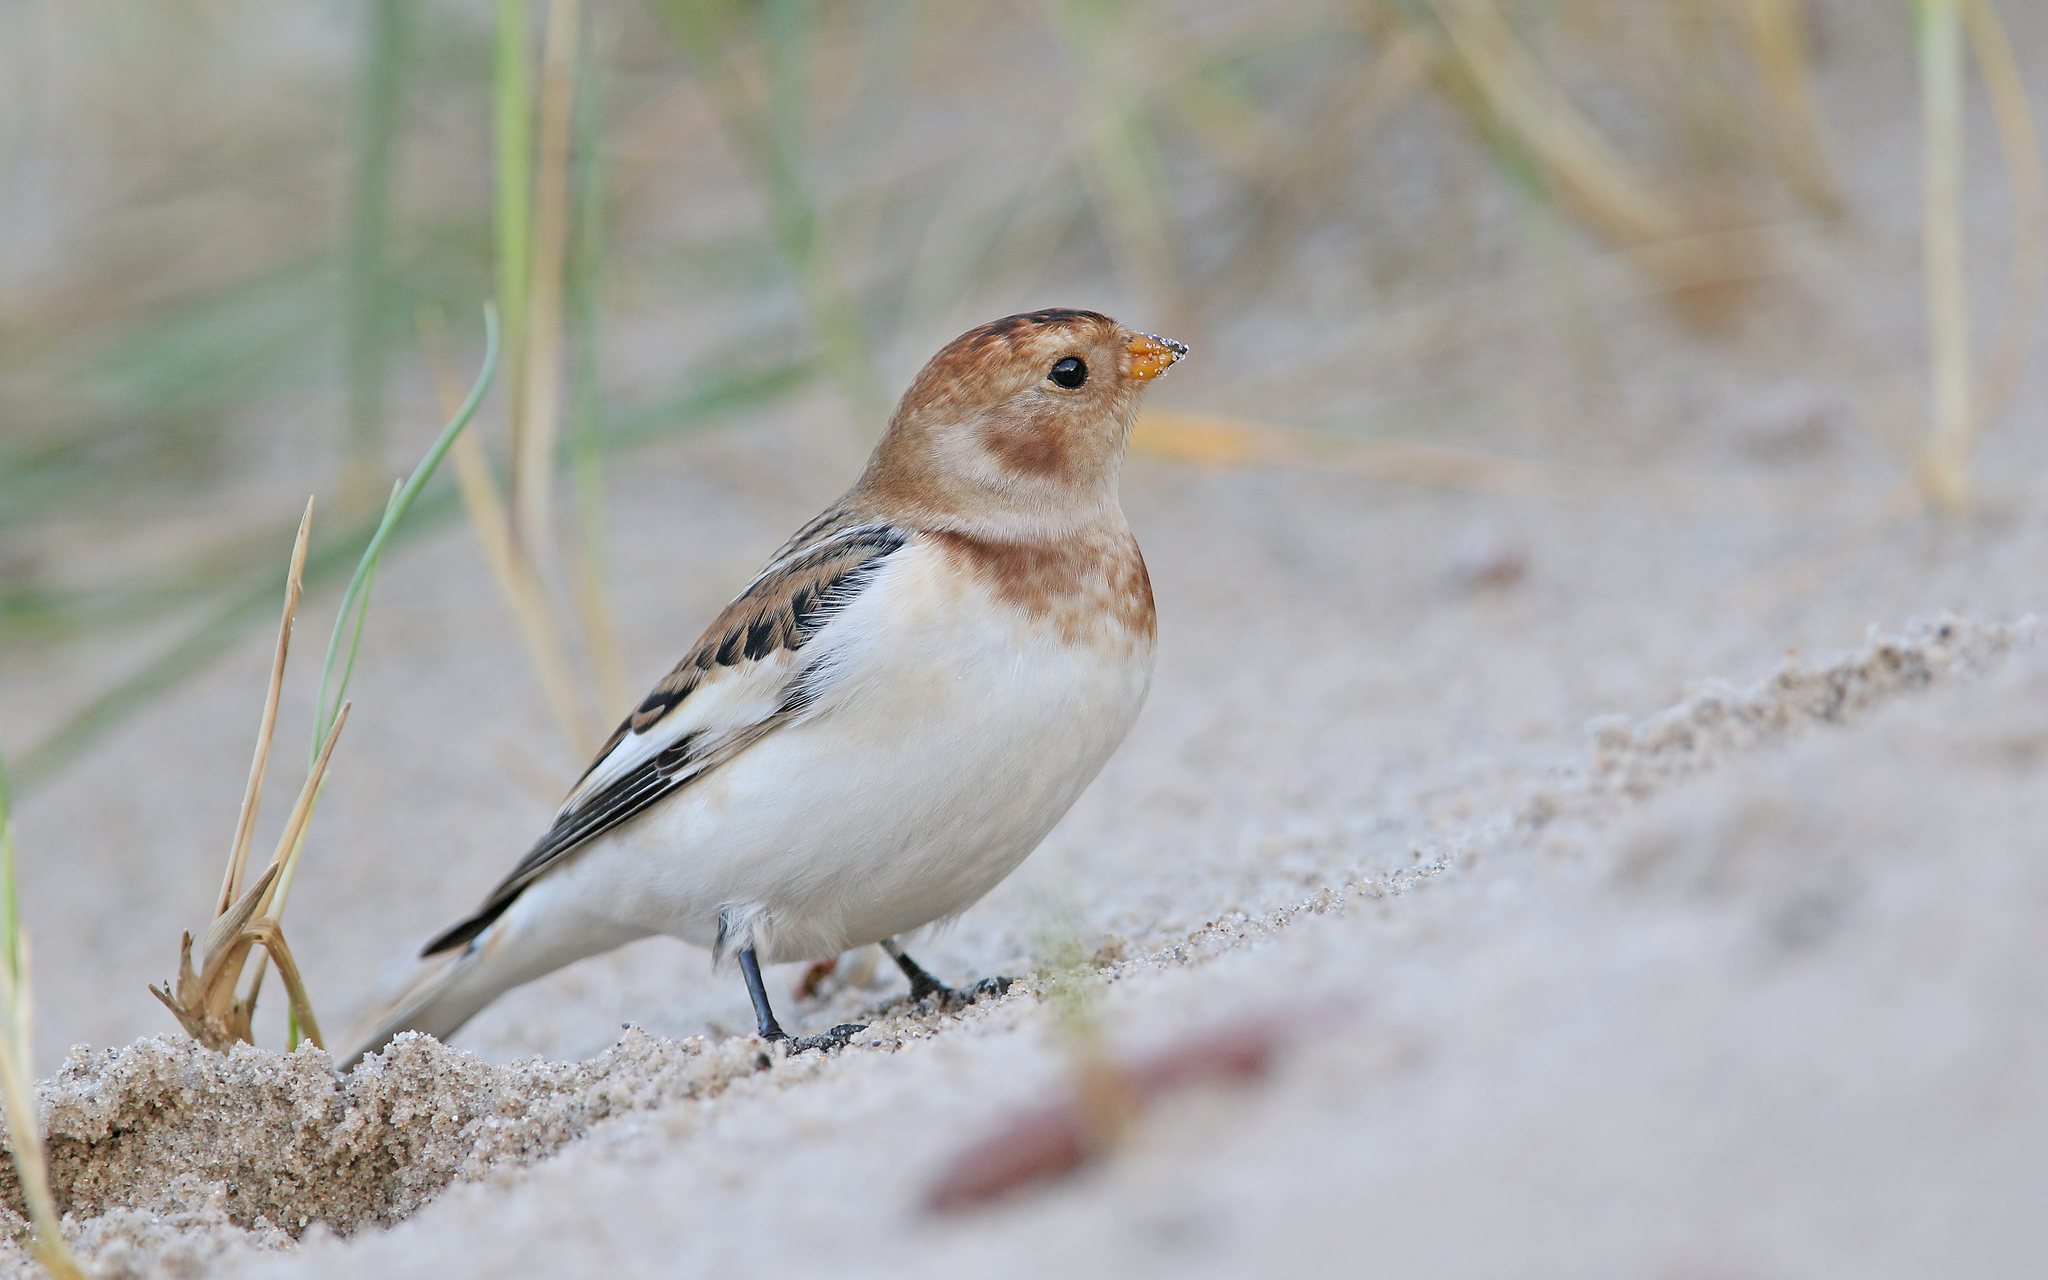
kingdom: Animalia
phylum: Chordata
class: Aves
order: Passeriformes
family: Calcariidae
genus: Plectrophenax
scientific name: Plectrophenax nivalis
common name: Snow bunting
